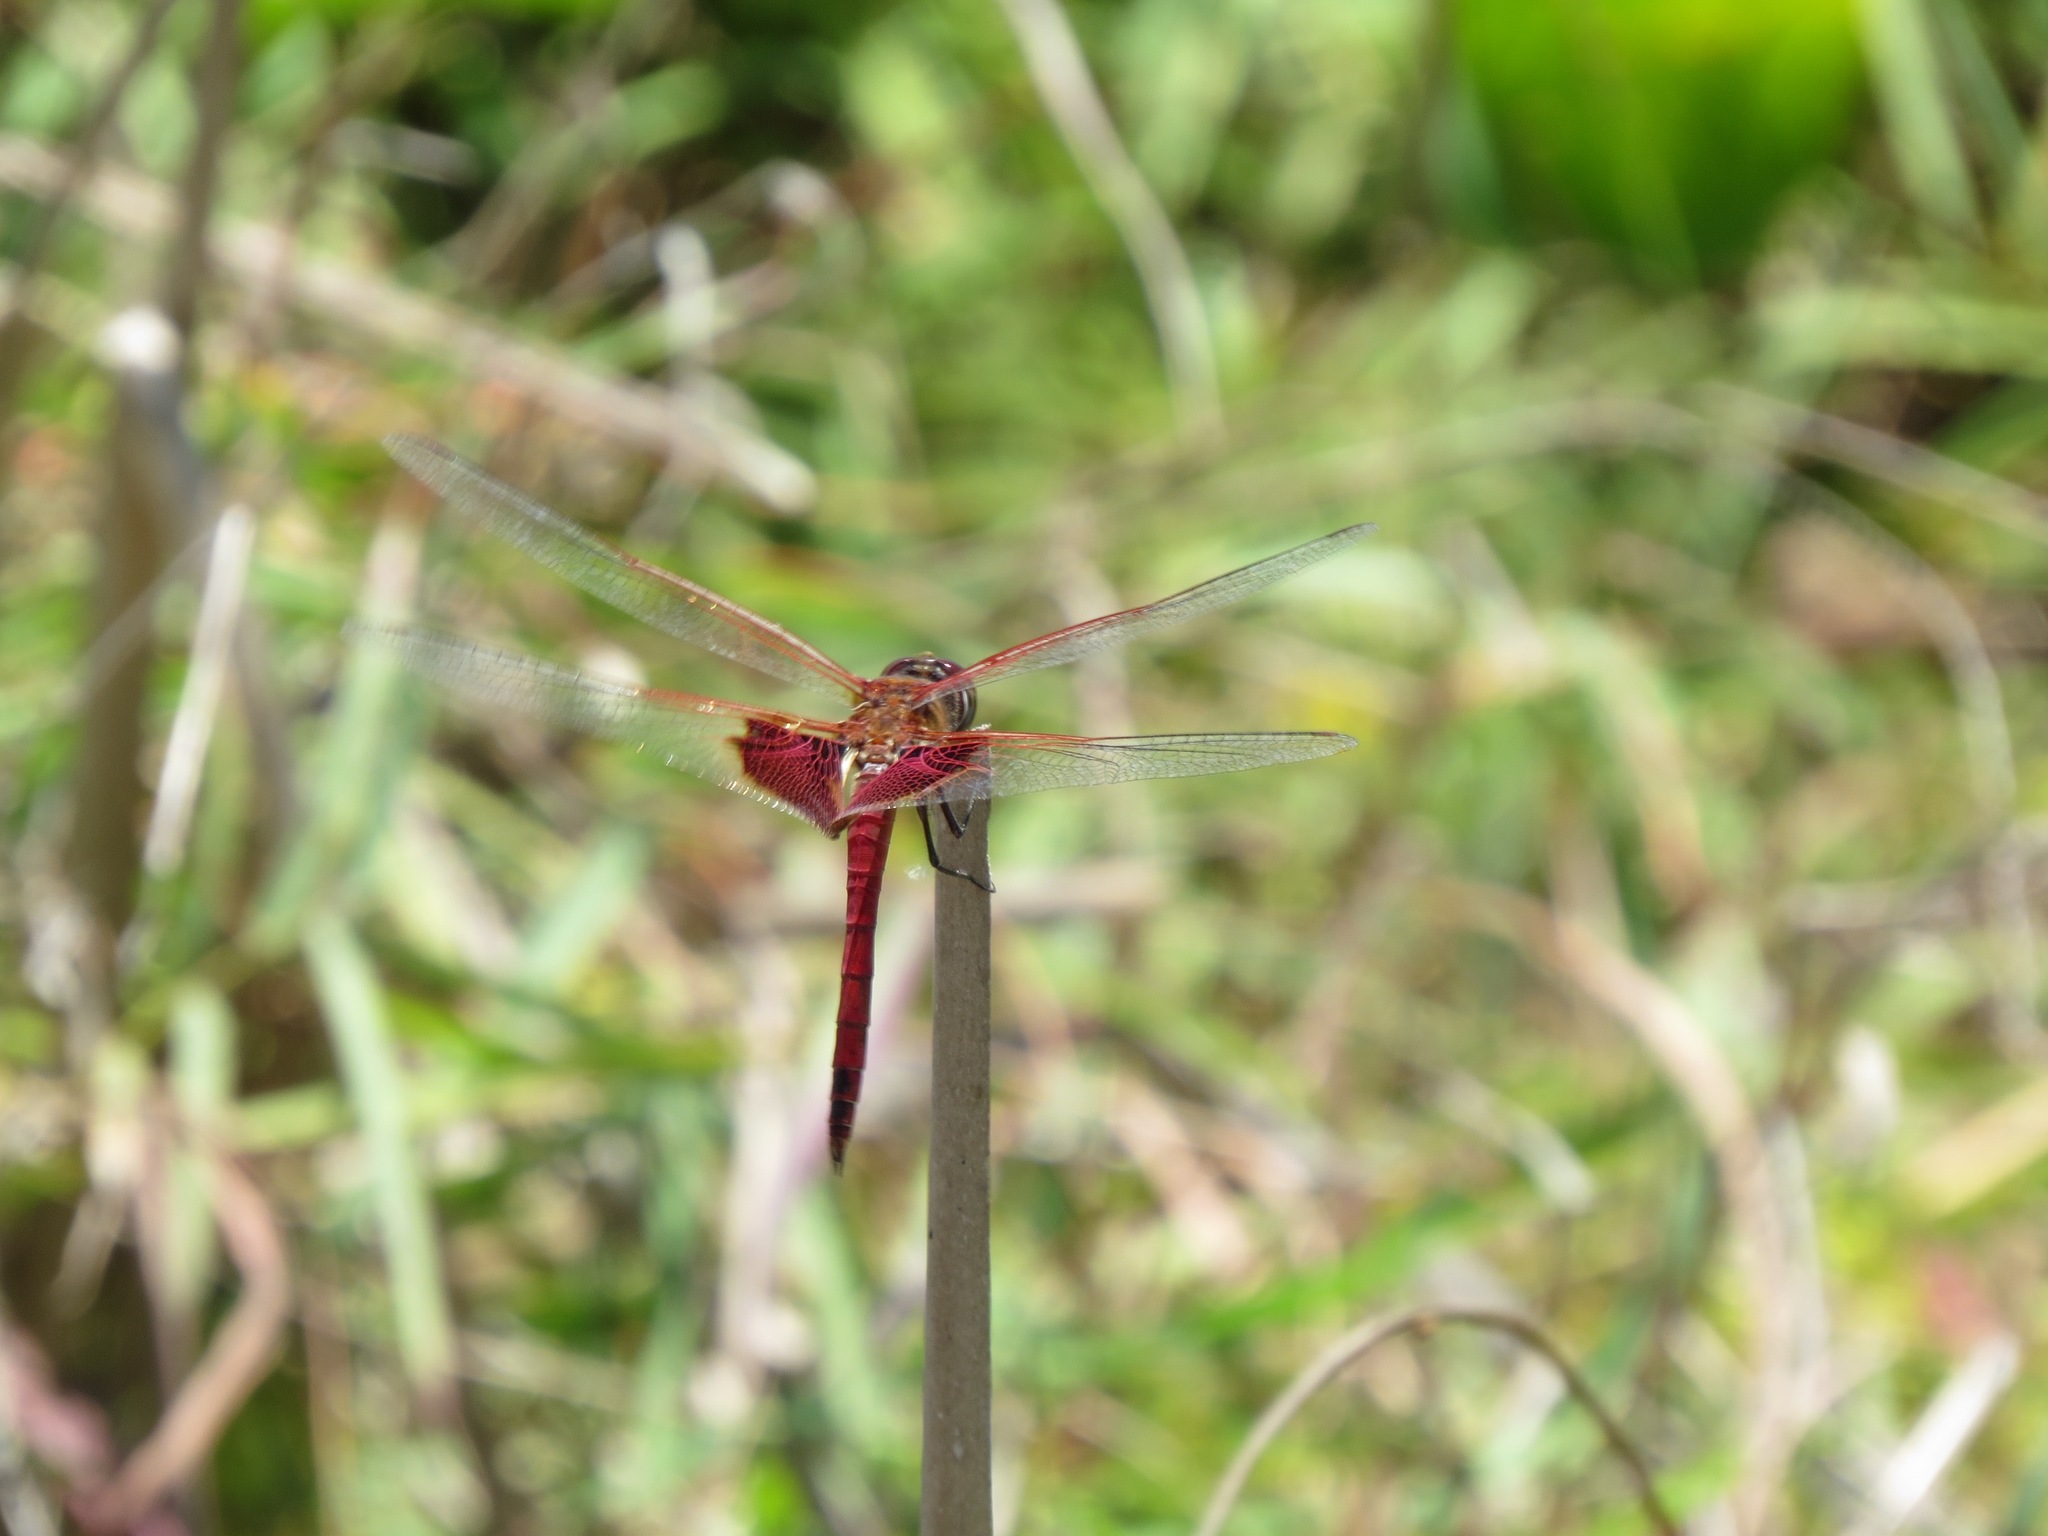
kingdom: Animalia
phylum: Arthropoda
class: Insecta
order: Odonata
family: Libellulidae
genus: Tramea
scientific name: Tramea onusta
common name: Red saddlebags
